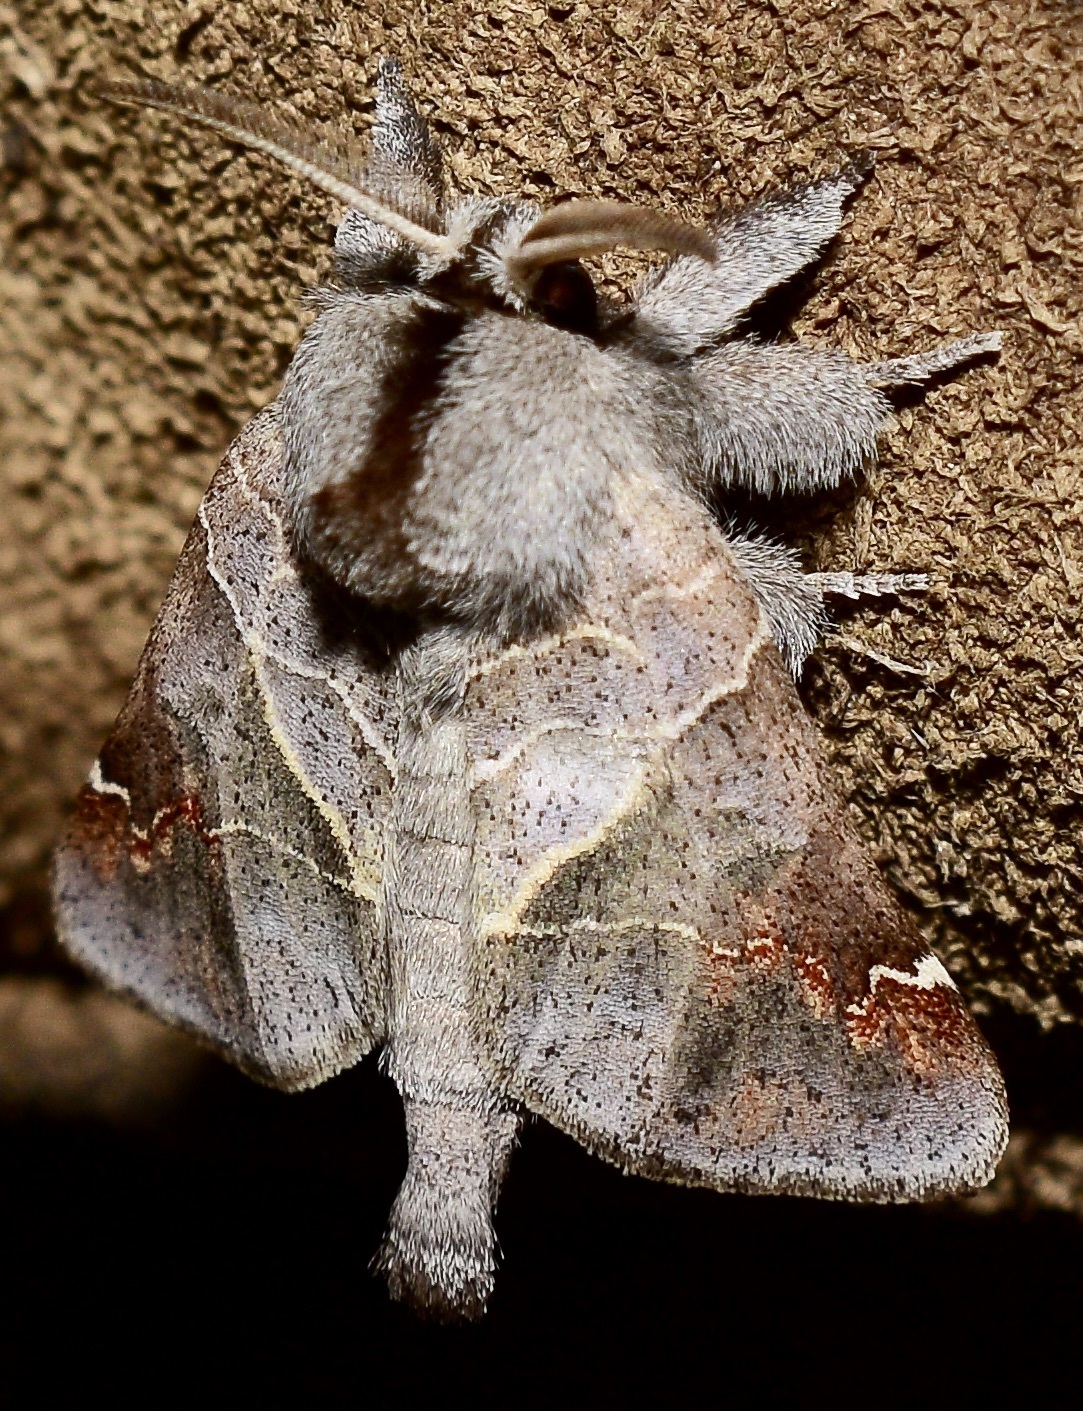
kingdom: Animalia
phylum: Arthropoda
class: Insecta
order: Lepidoptera
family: Notodontidae
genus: Clostera
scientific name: Clostera apicalis
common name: Apical prominent
